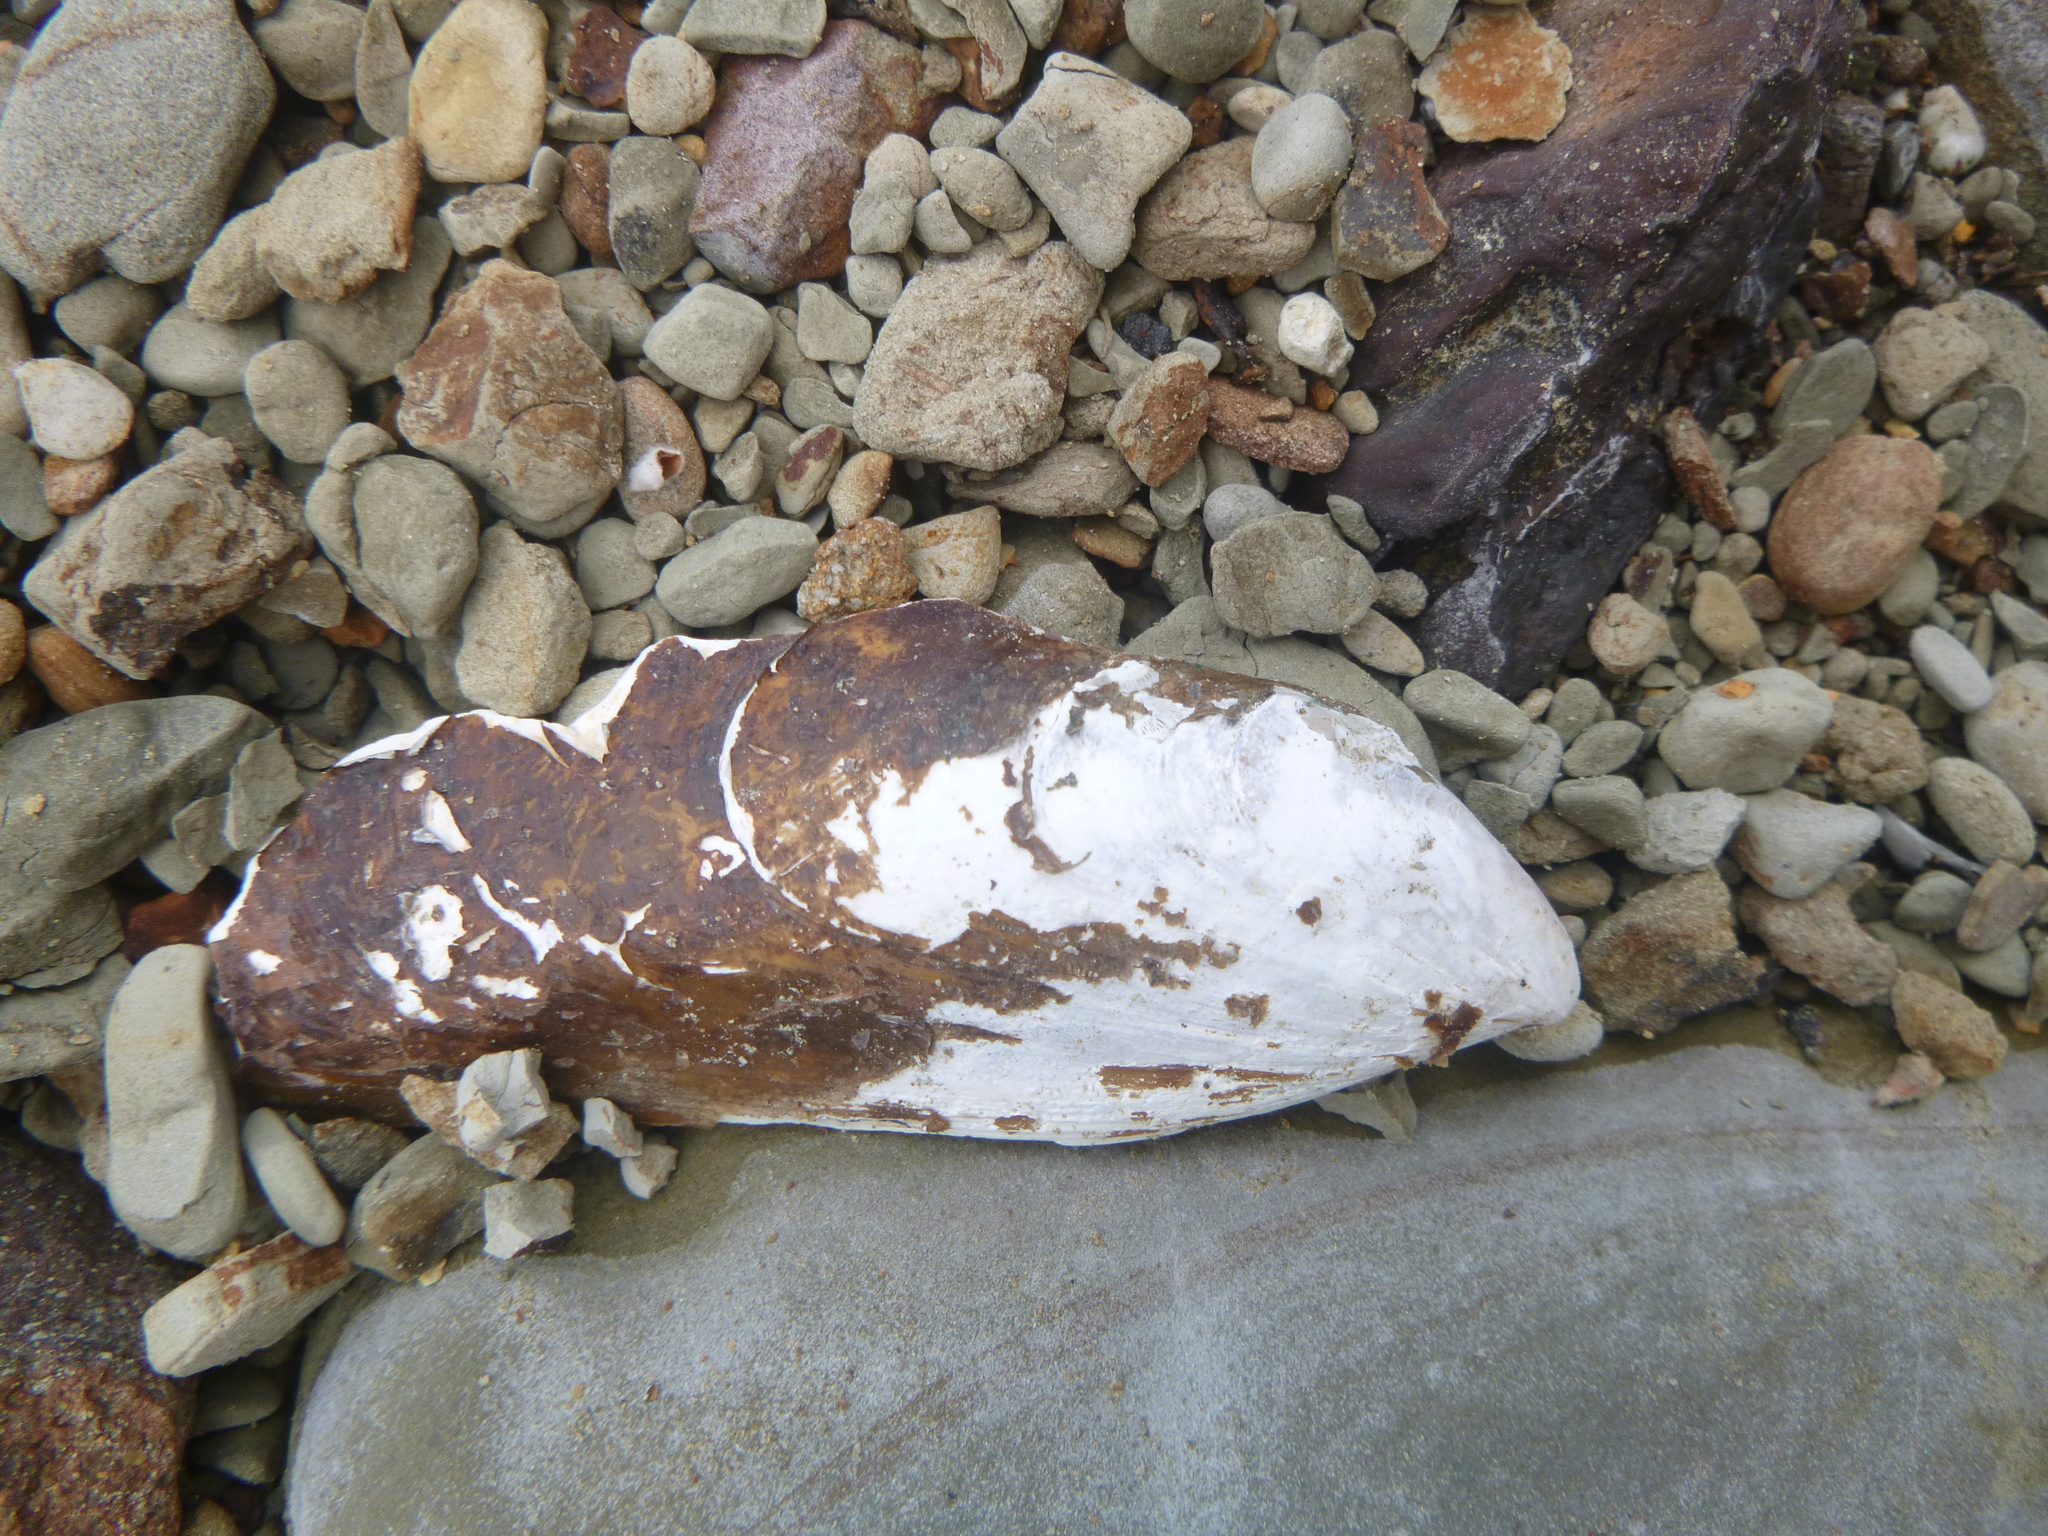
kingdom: Animalia
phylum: Mollusca
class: Bivalvia
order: Mytilida
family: Mytilidae
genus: Perna
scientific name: Perna canaliculus
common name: New zealand greenshelltm
